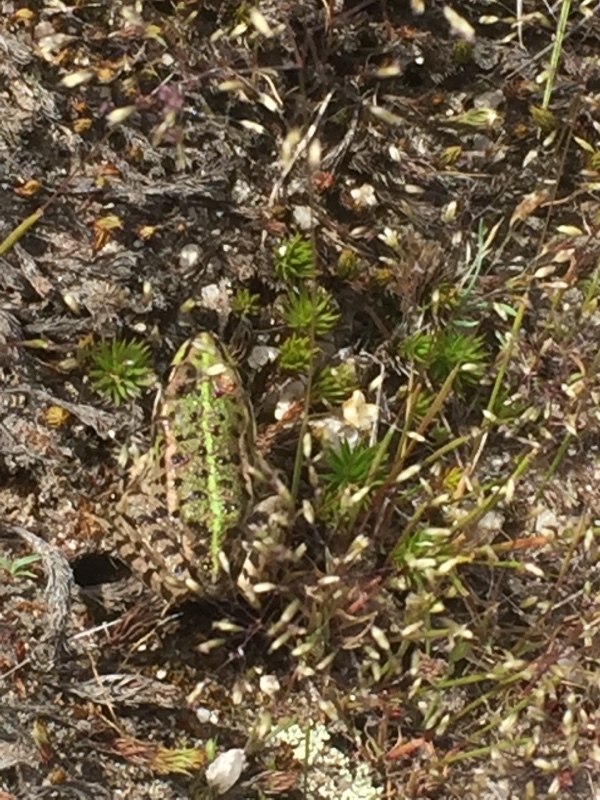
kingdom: Animalia
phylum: Chordata
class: Amphibia
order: Anura
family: Ranidae
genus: Pelophylax
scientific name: Pelophylax perezi
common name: Perez's frog
